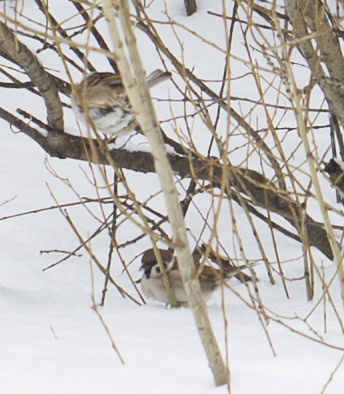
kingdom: Animalia
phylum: Chordata
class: Aves
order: Passeriformes
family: Passeridae
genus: Passer
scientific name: Passer montanus
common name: Eurasian tree sparrow
